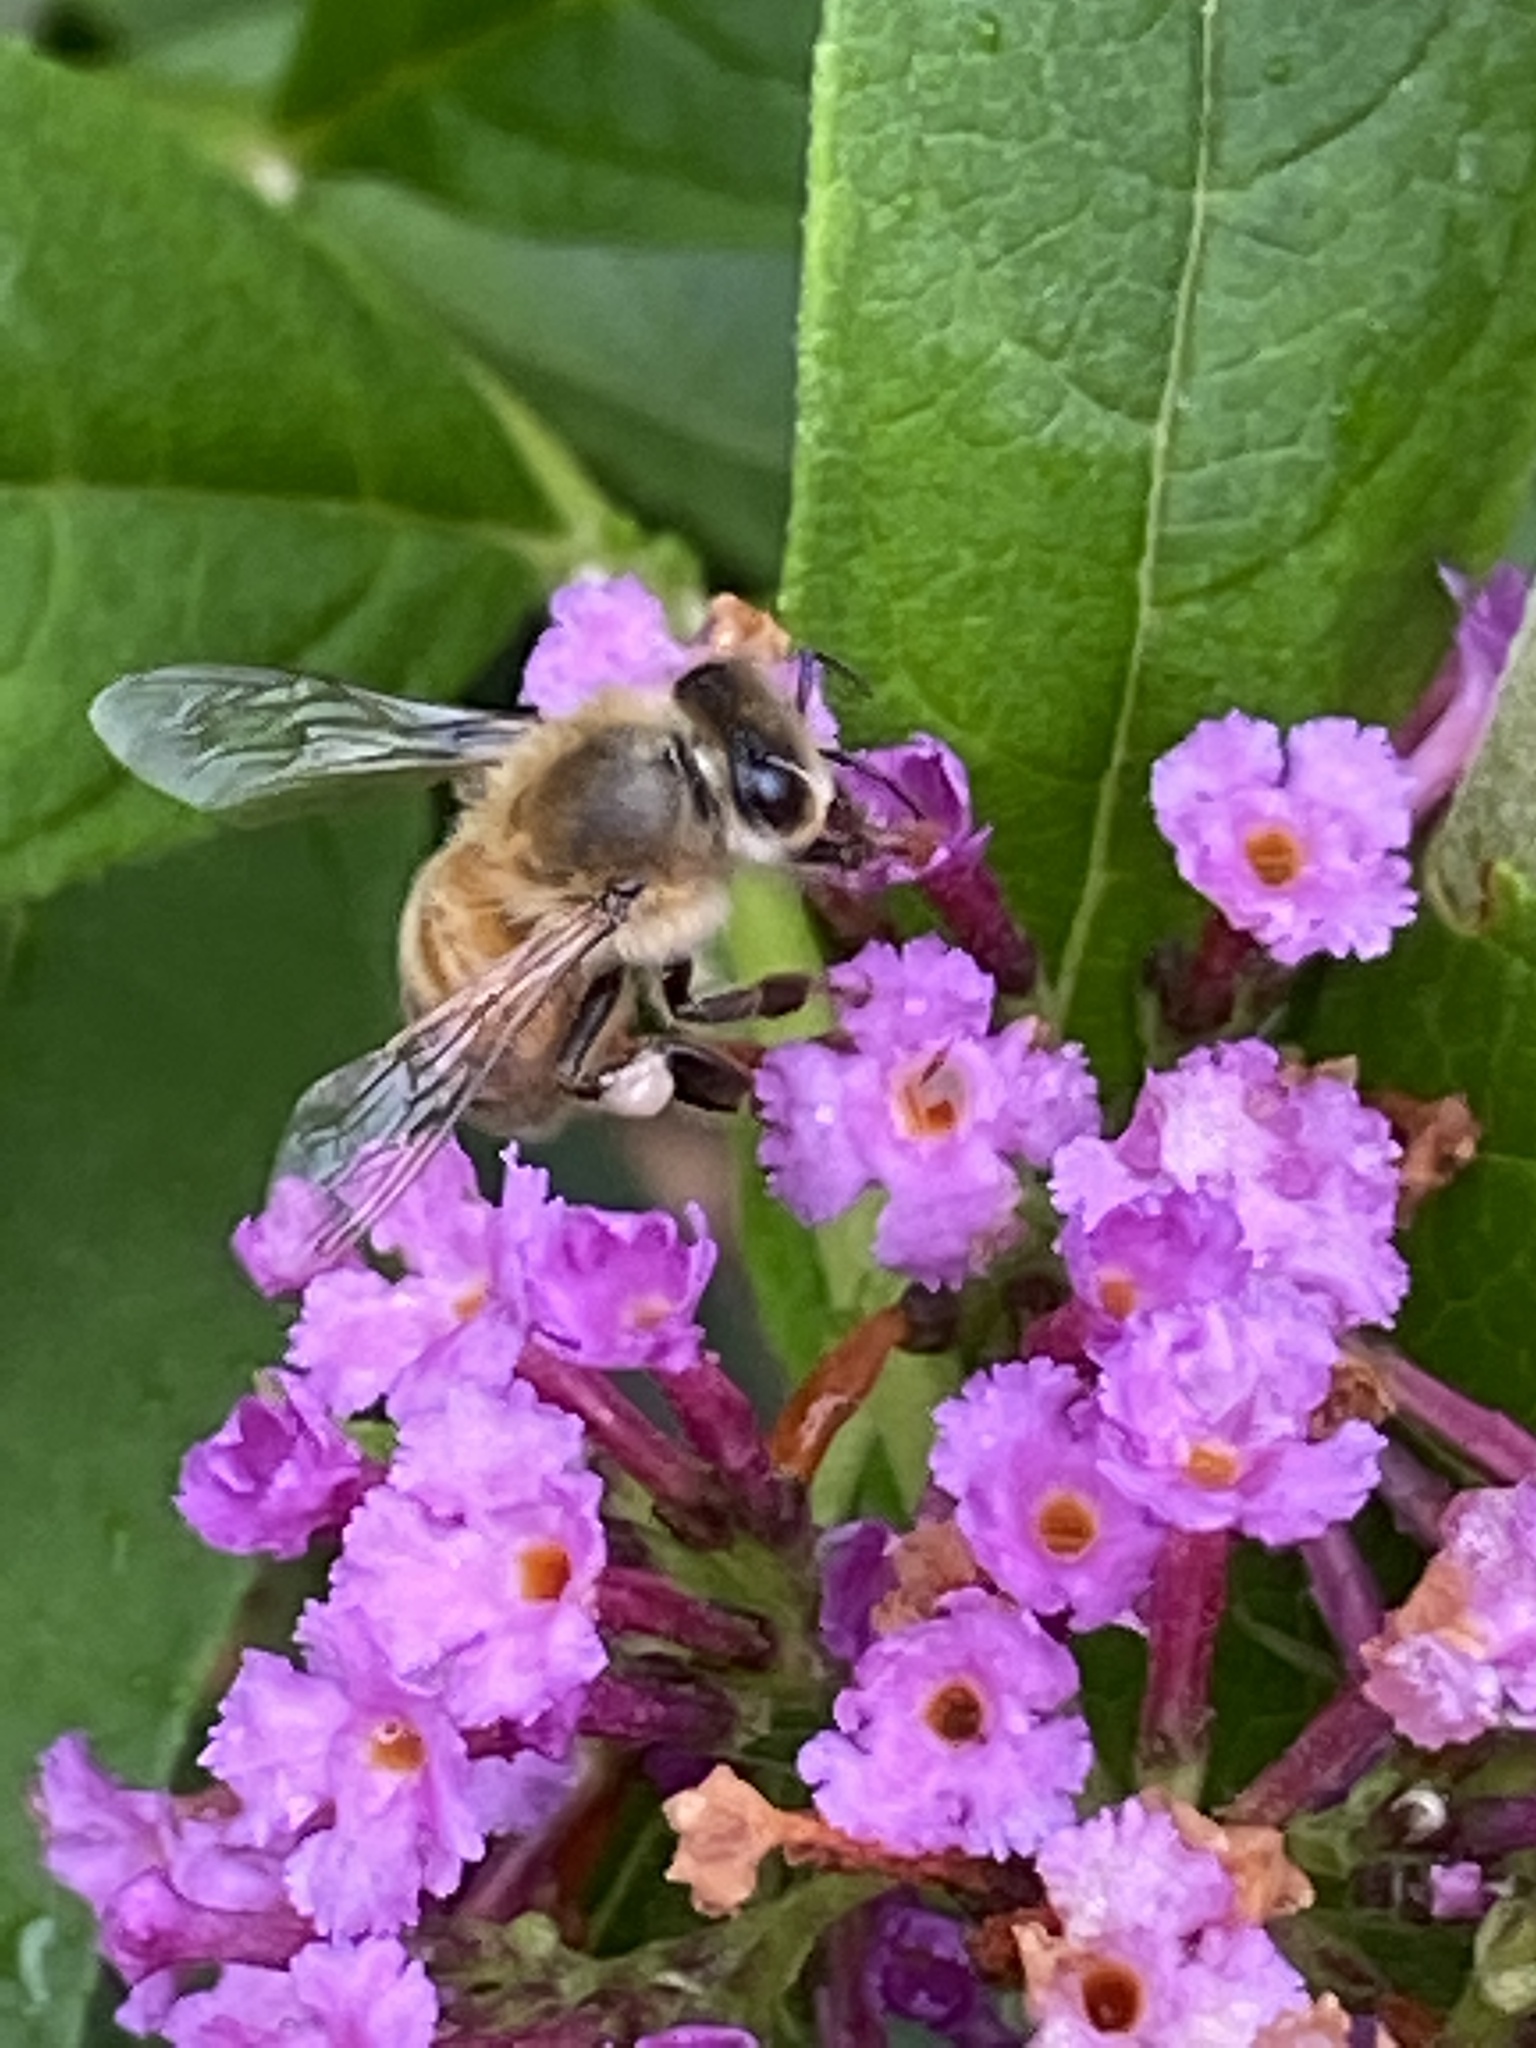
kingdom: Animalia
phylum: Arthropoda
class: Insecta
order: Hymenoptera
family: Apidae
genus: Apis
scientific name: Apis mellifera
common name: Honey bee
